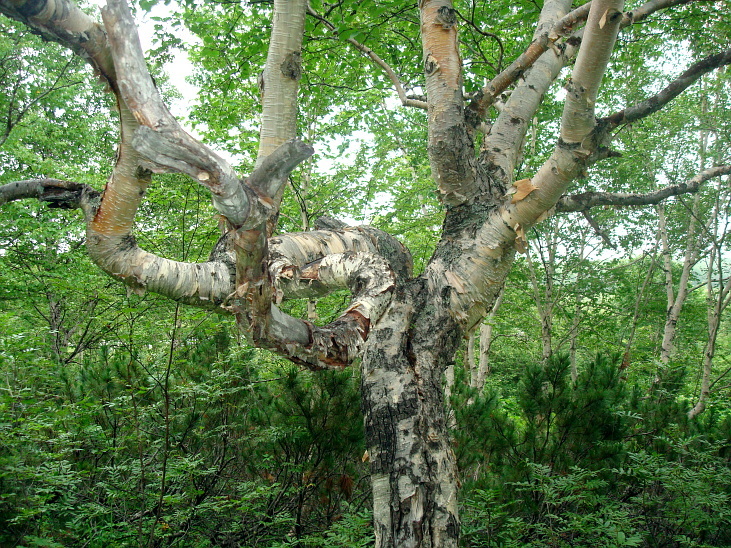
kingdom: Plantae
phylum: Tracheophyta
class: Magnoliopsida
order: Fagales
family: Betulaceae
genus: Betula
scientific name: Betula ermanii
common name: Erman's birch
